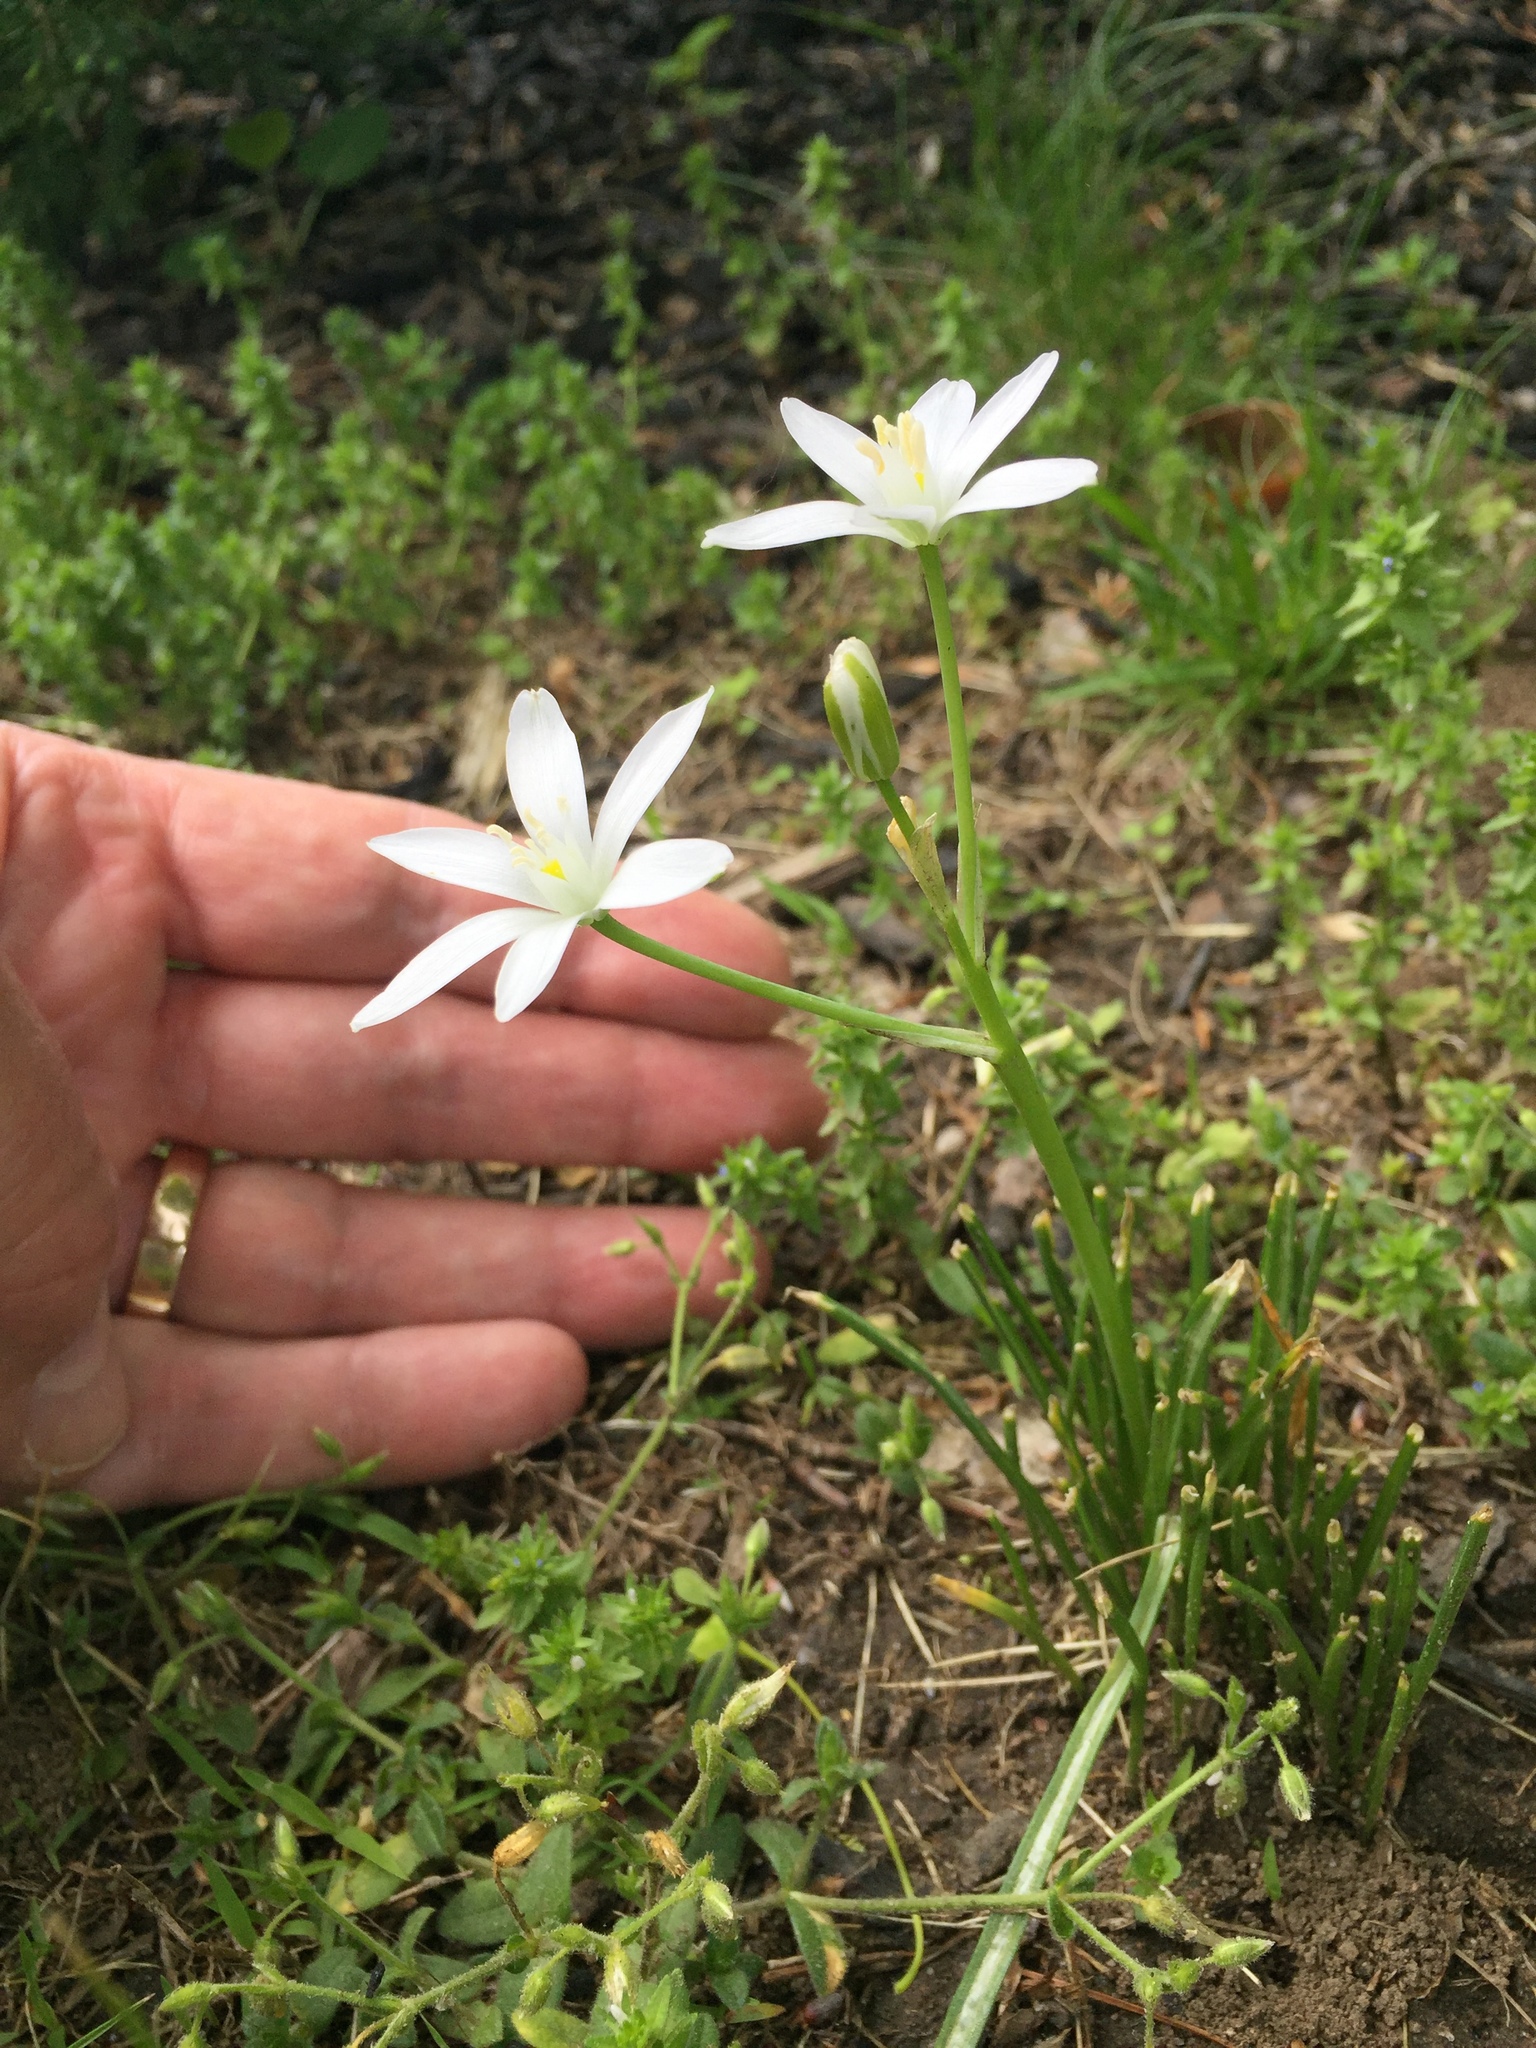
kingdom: Plantae
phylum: Tracheophyta
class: Liliopsida
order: Asparagales
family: Asparagaceae
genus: Ornithogalum
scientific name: Ornithogalum umbellatum
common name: Garden star-of-bethlehem
